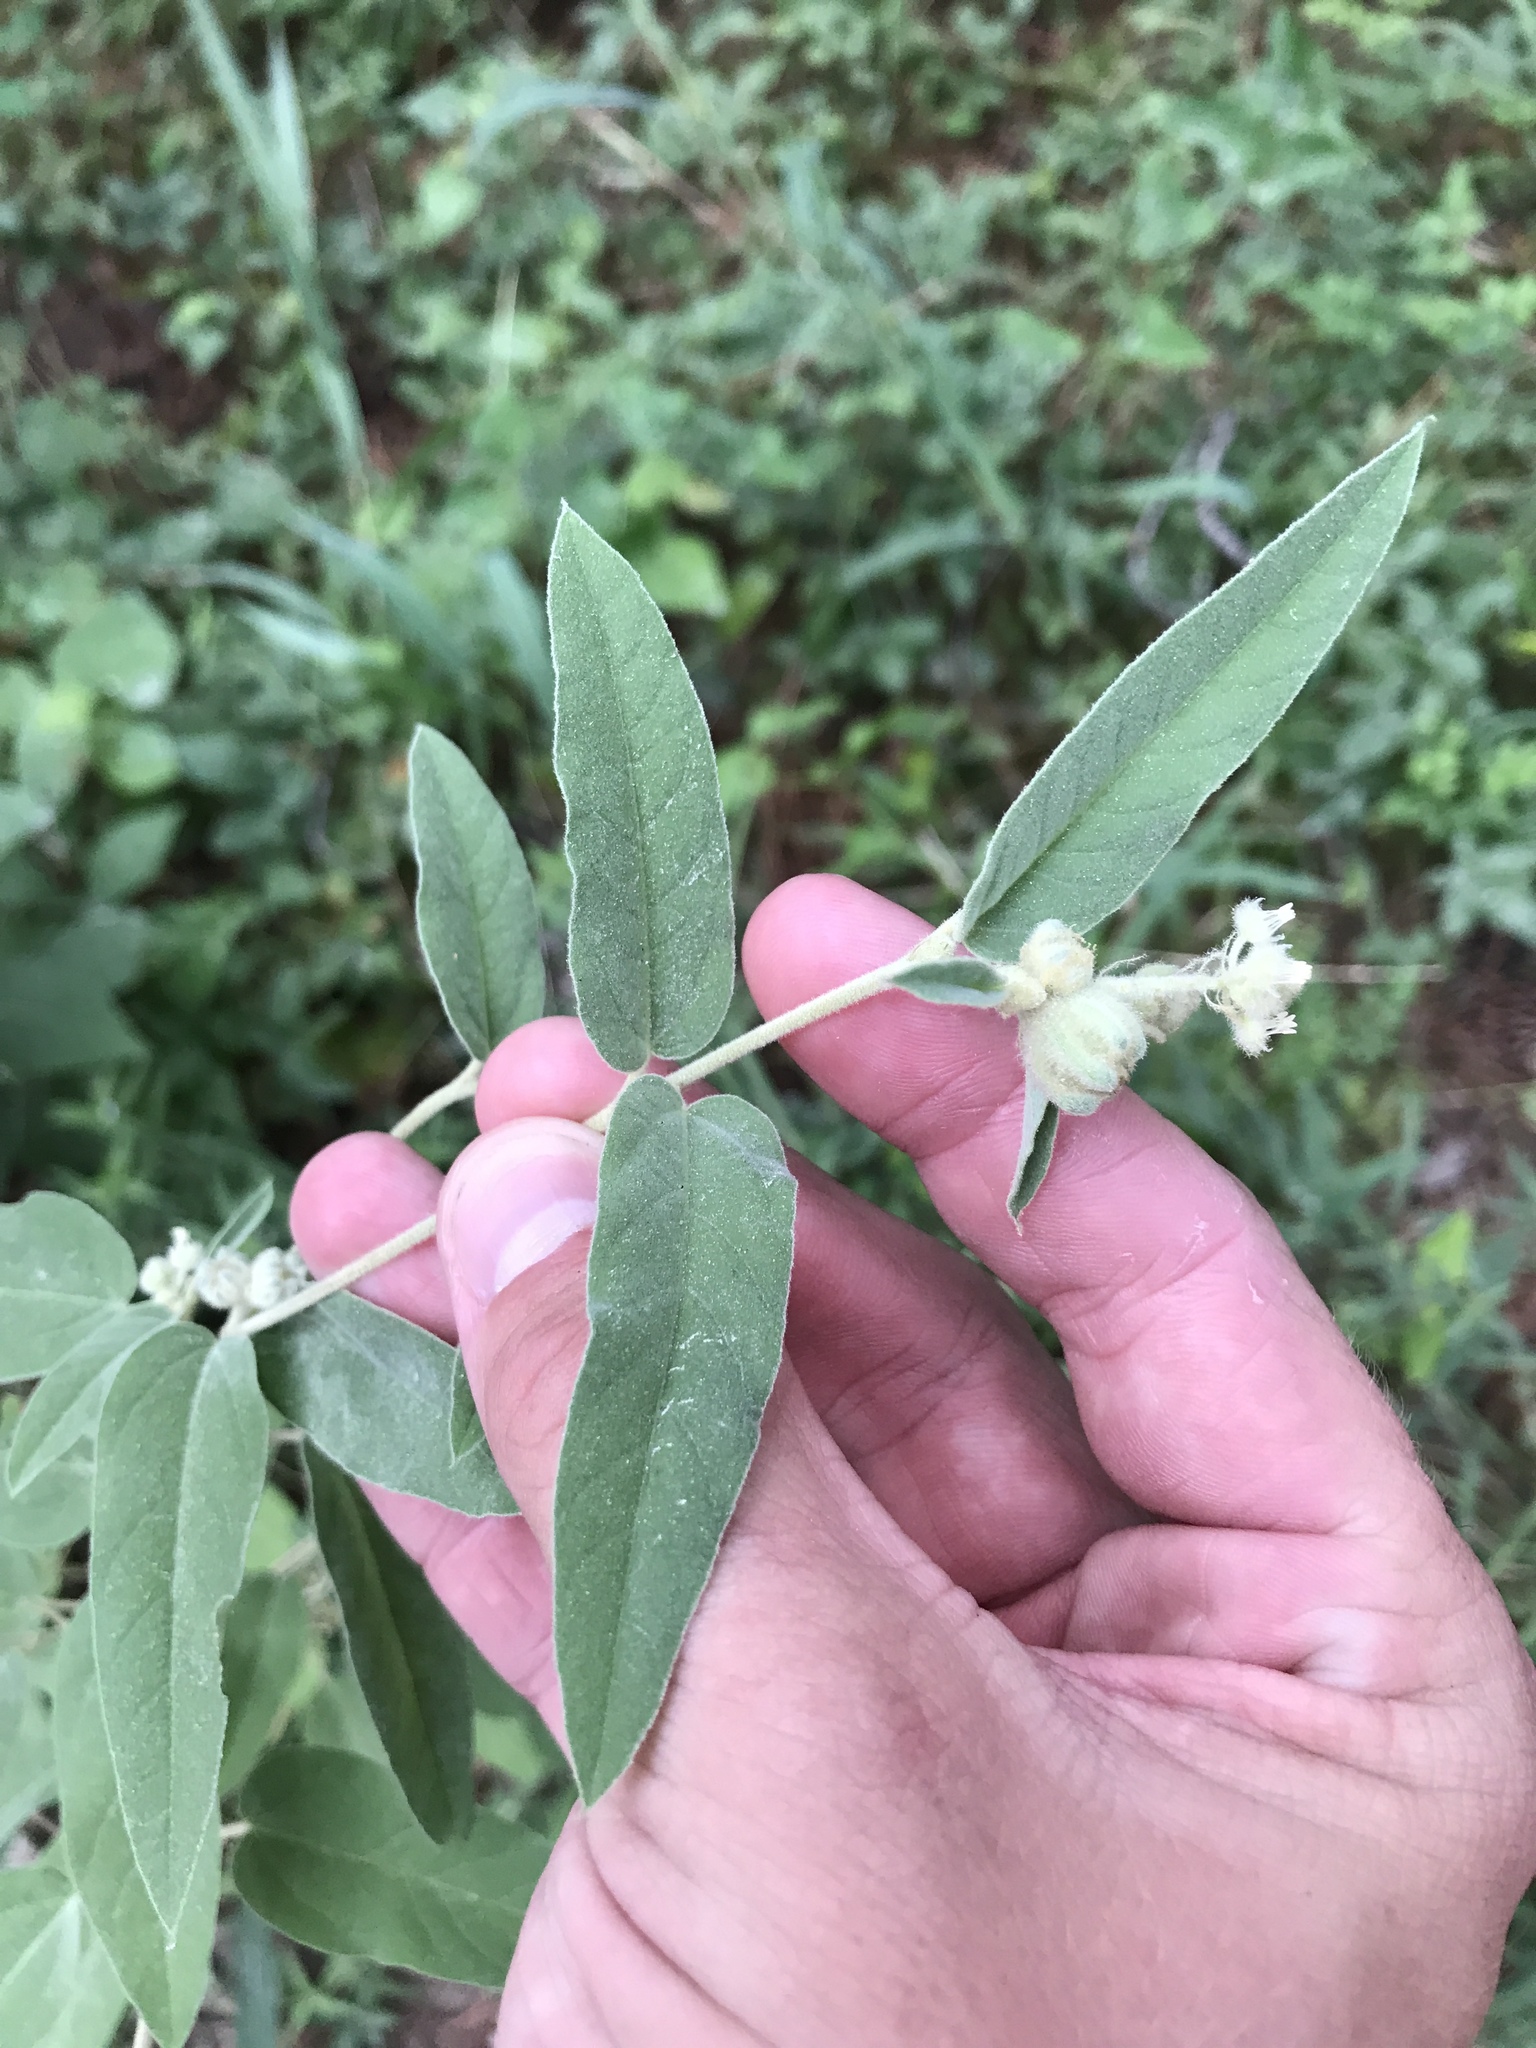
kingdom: Plantae
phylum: Tracheophyta
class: Magnoliopsida
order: Malpighiales
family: Euphorbiaceae
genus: Croton
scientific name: Croton lindheimeri
